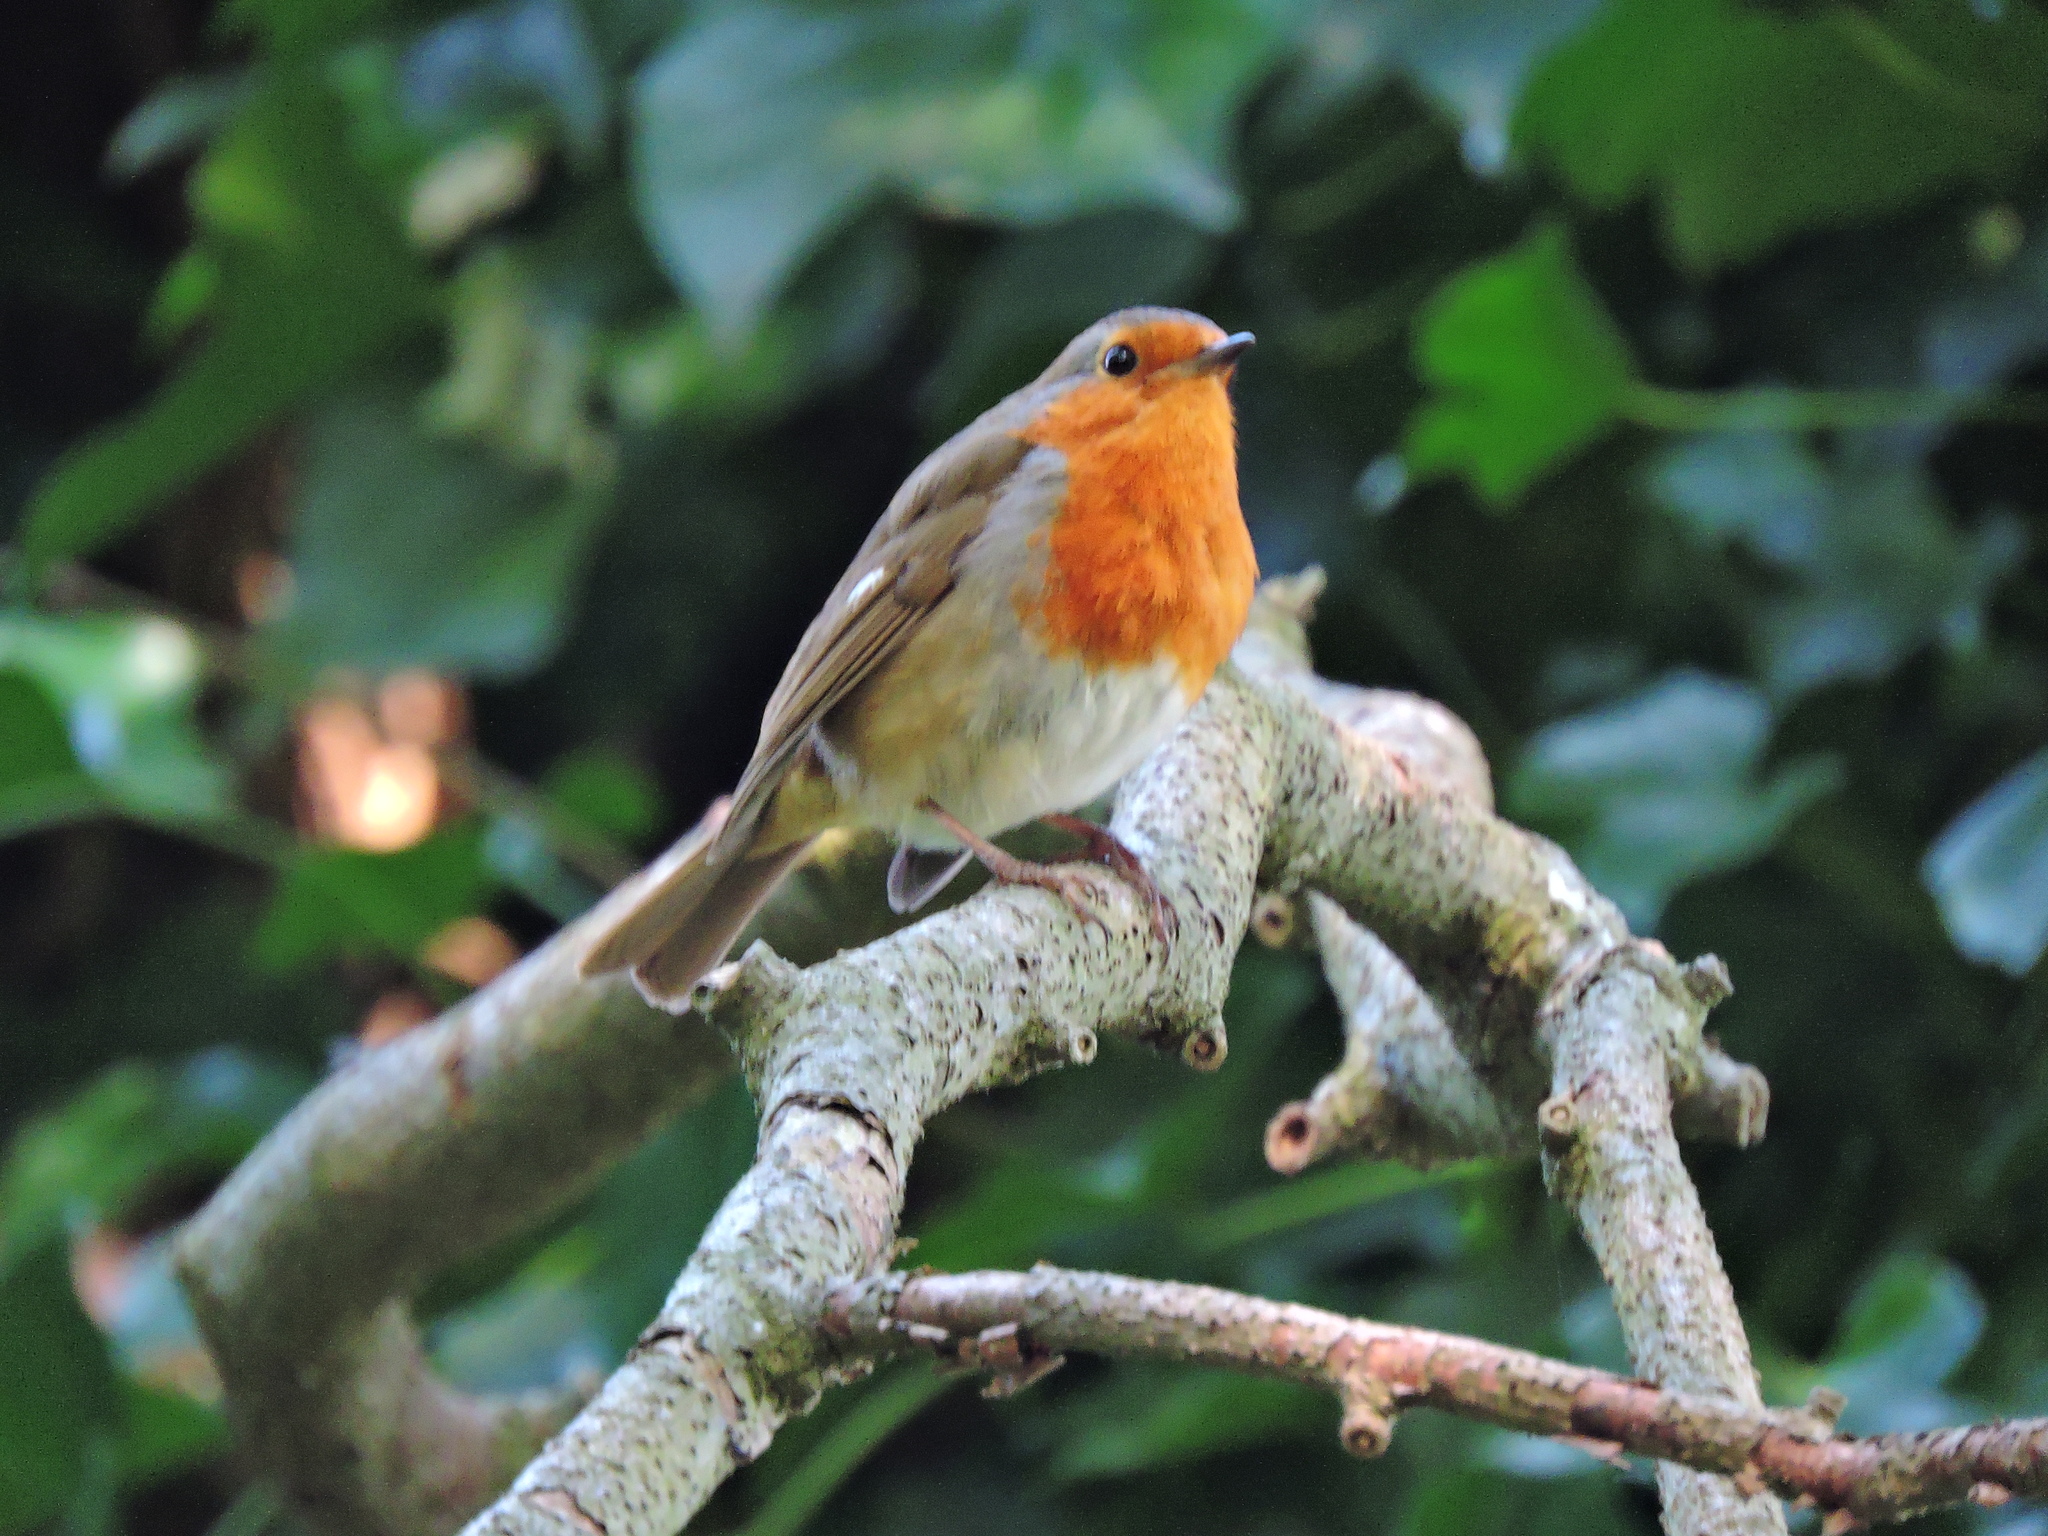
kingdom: Animalia
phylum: Chordata
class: Aves
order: Passeriformes
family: Muscicapidae
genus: Erithacus
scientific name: Erithacus rubecula
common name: European robin
